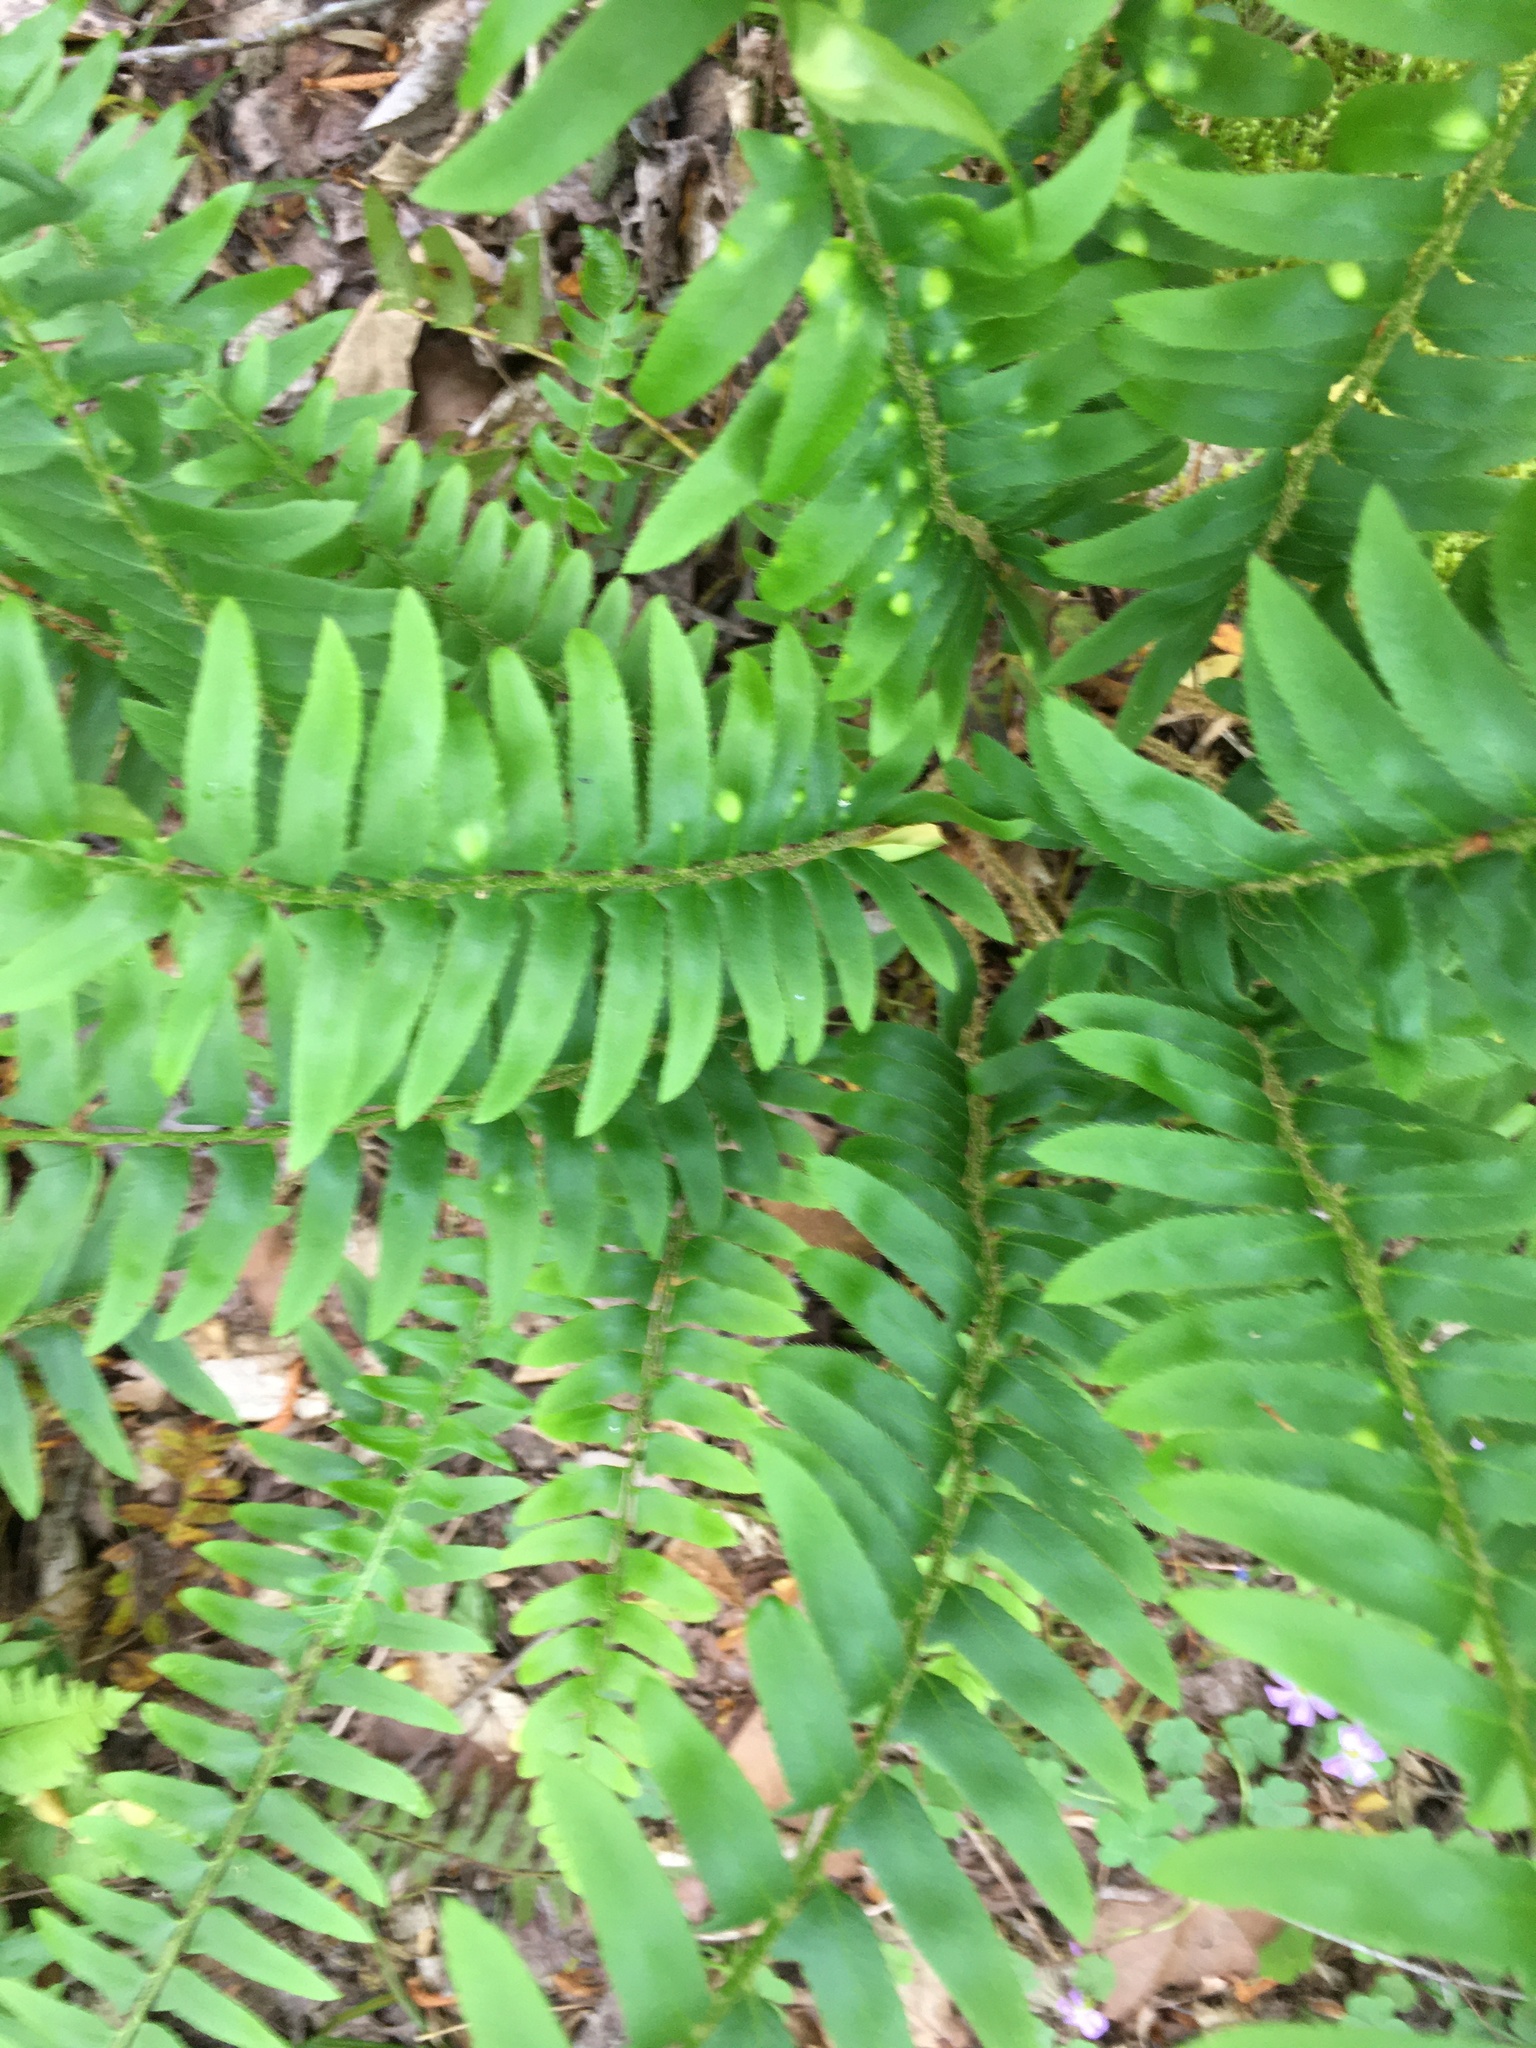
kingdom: Plantae
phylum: Tracheophyta
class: Polypodiopsida
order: Polypodiales
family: Dryopteridaceae
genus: Polystichum
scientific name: Polystichum acrostichoides
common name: Christmas fern
